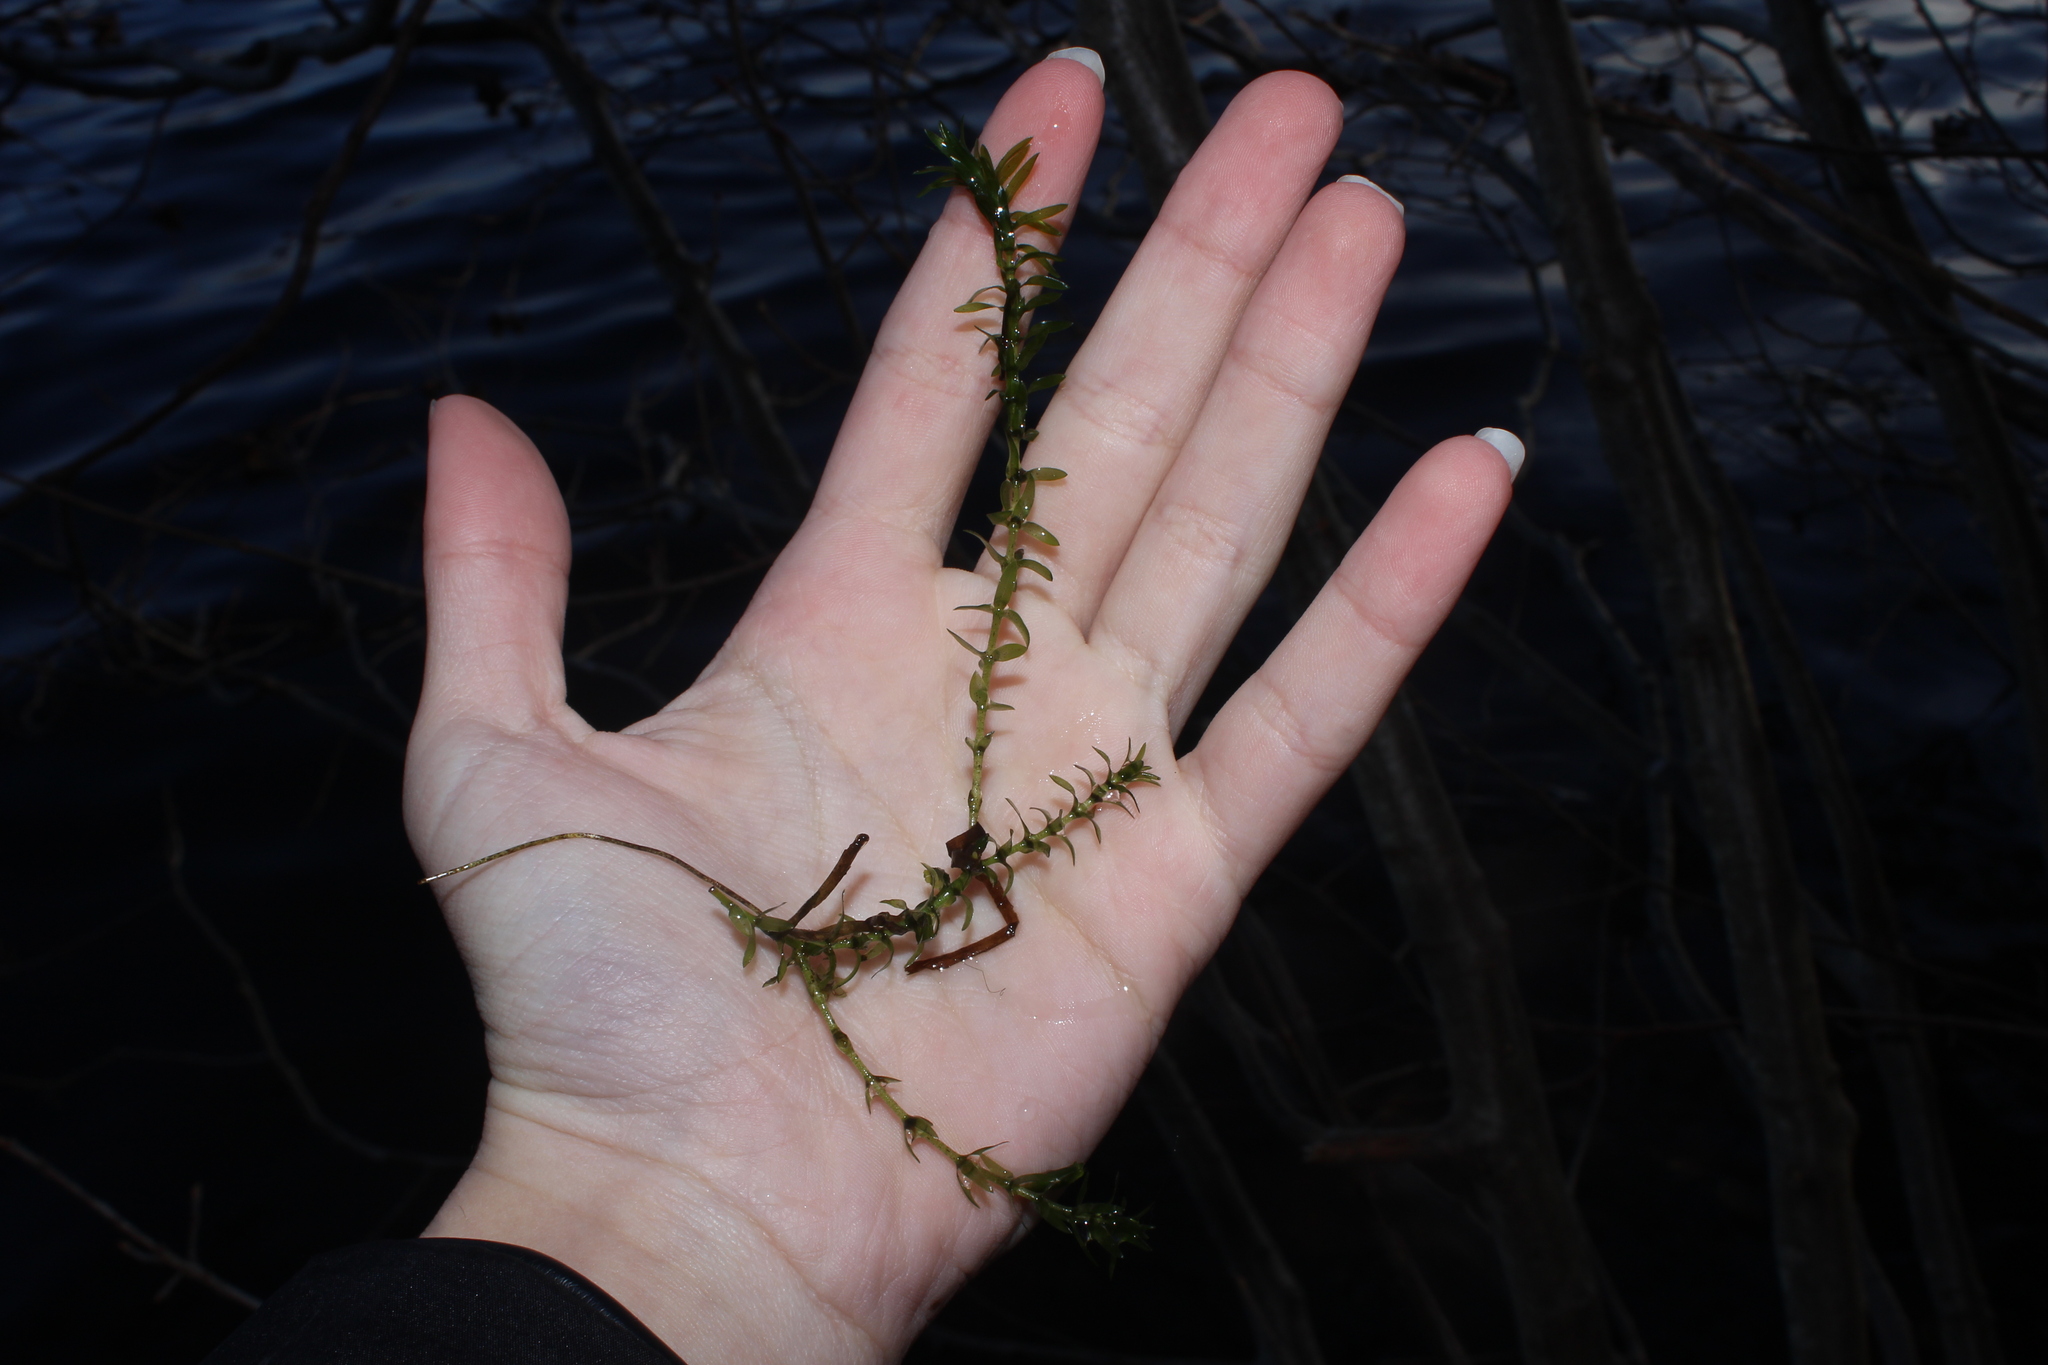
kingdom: Plantae
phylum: Tracheophyta
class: Liliopsida
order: Alismatales
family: Hydrocharitaceae
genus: Elodea
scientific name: Elodea canadensis
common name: Canadian waterweed
